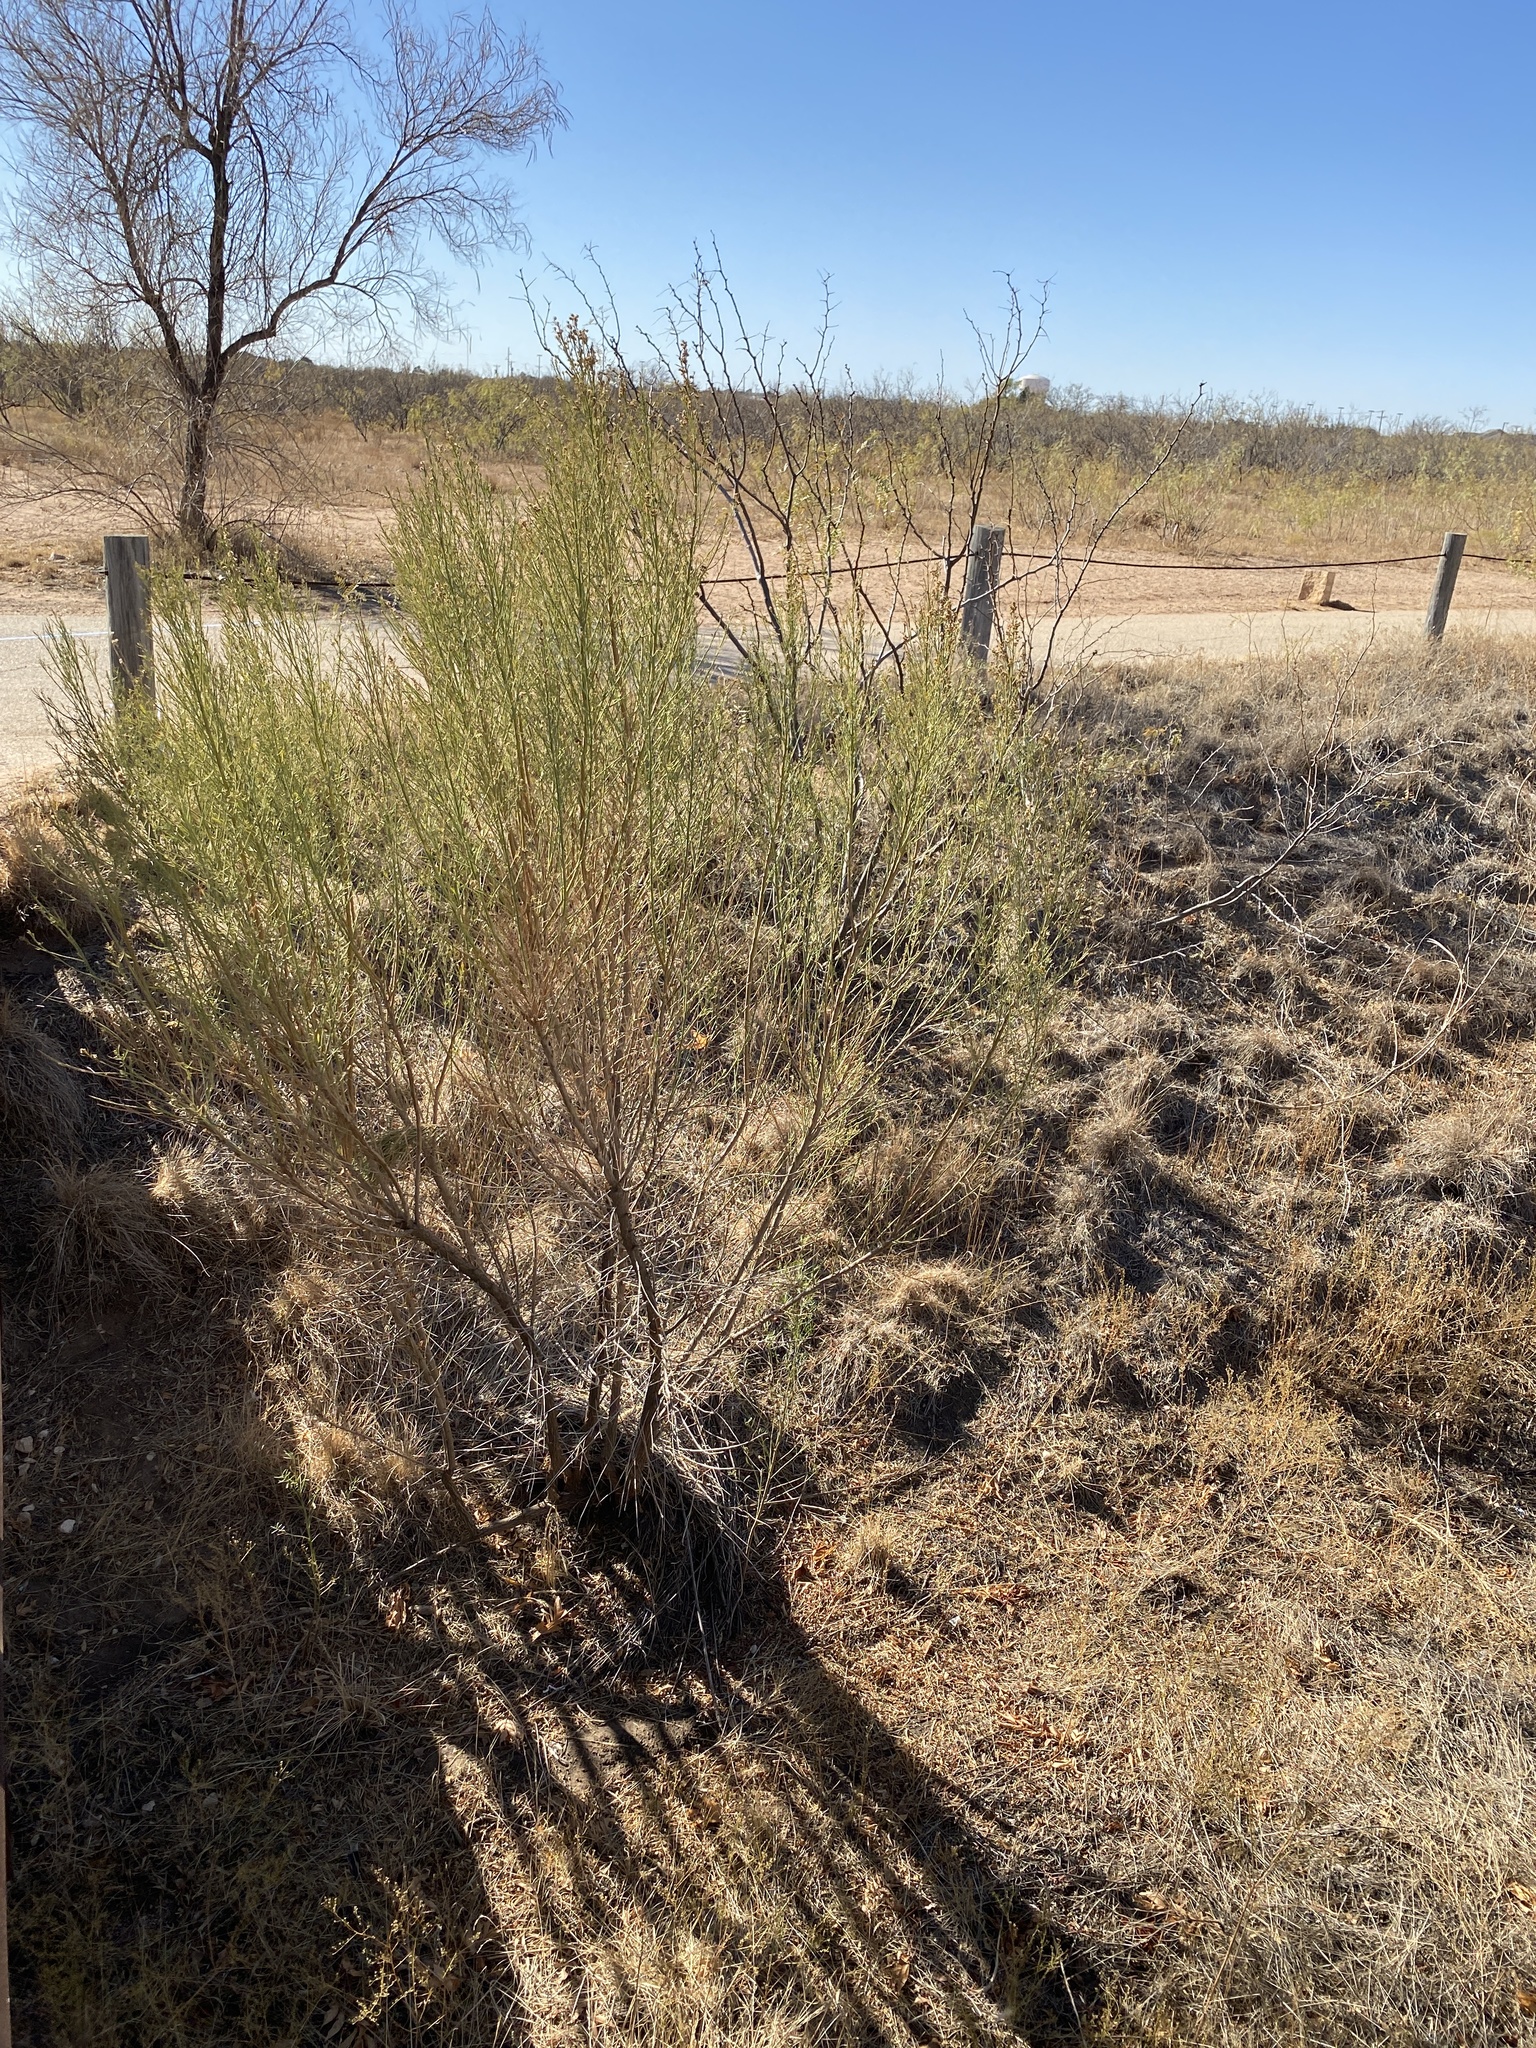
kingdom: Plantae
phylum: Tracheophyta
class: Magnoliopsida
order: Asterales
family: Asteraceae
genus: Baccharis
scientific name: Baccharis neglecta
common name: Roosevelt-weed
